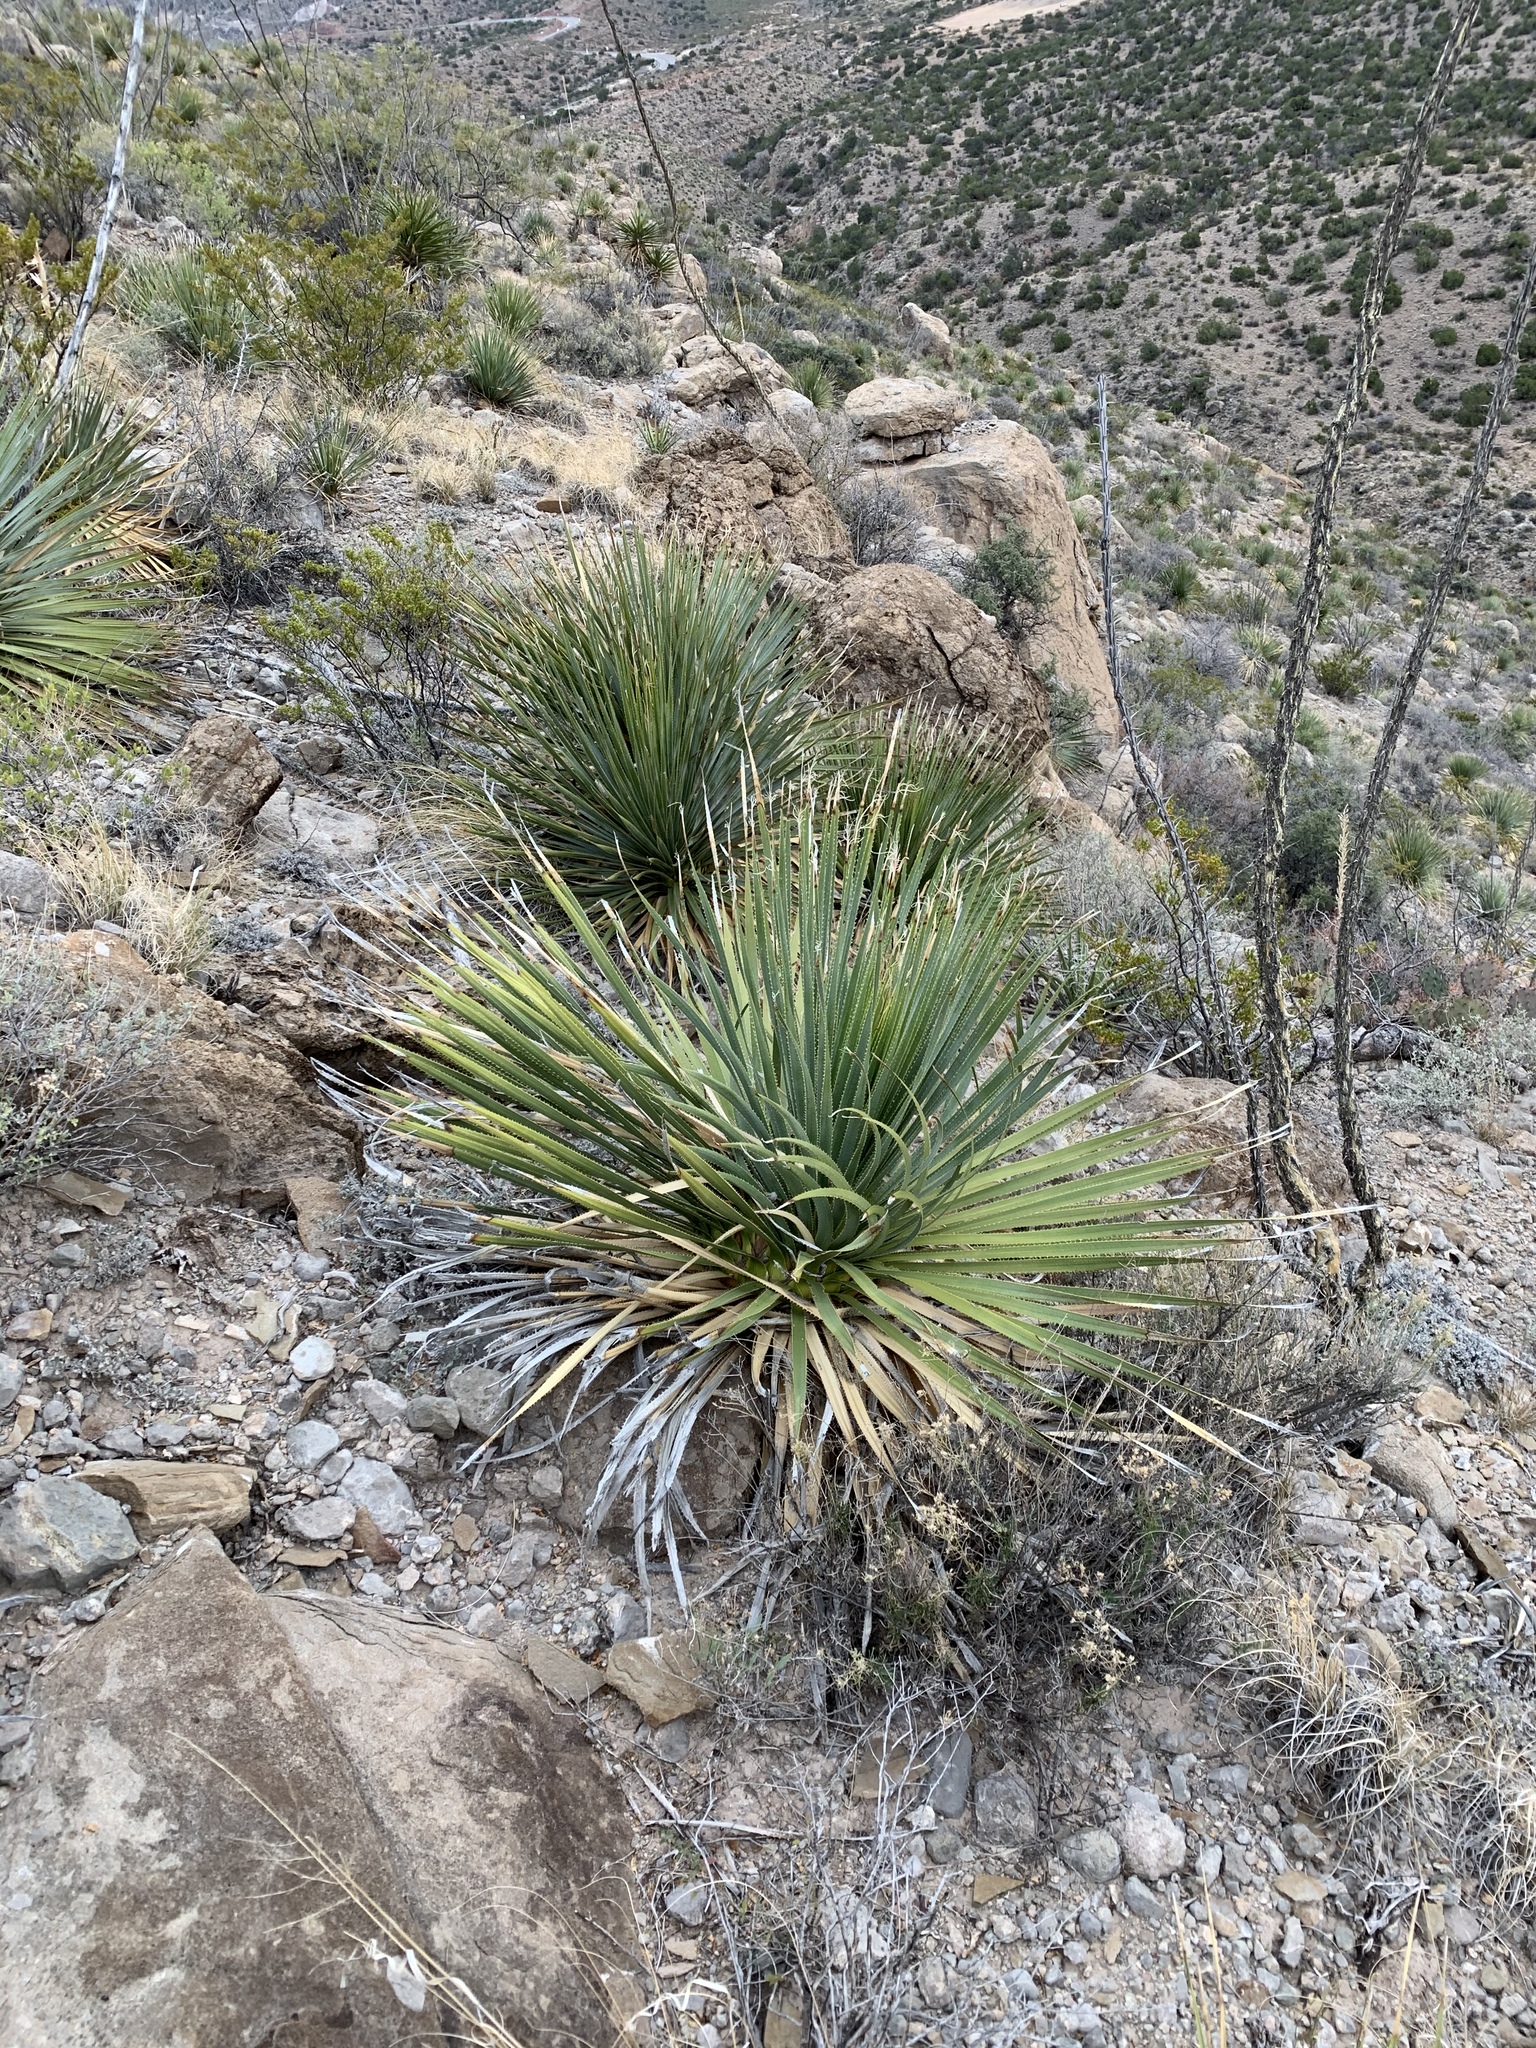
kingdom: Plantae
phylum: Tracheophyta
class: Liliopsida
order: Asparagales
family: Asparagaceae
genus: Dasylirion
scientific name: Dasylirion wheeleri
